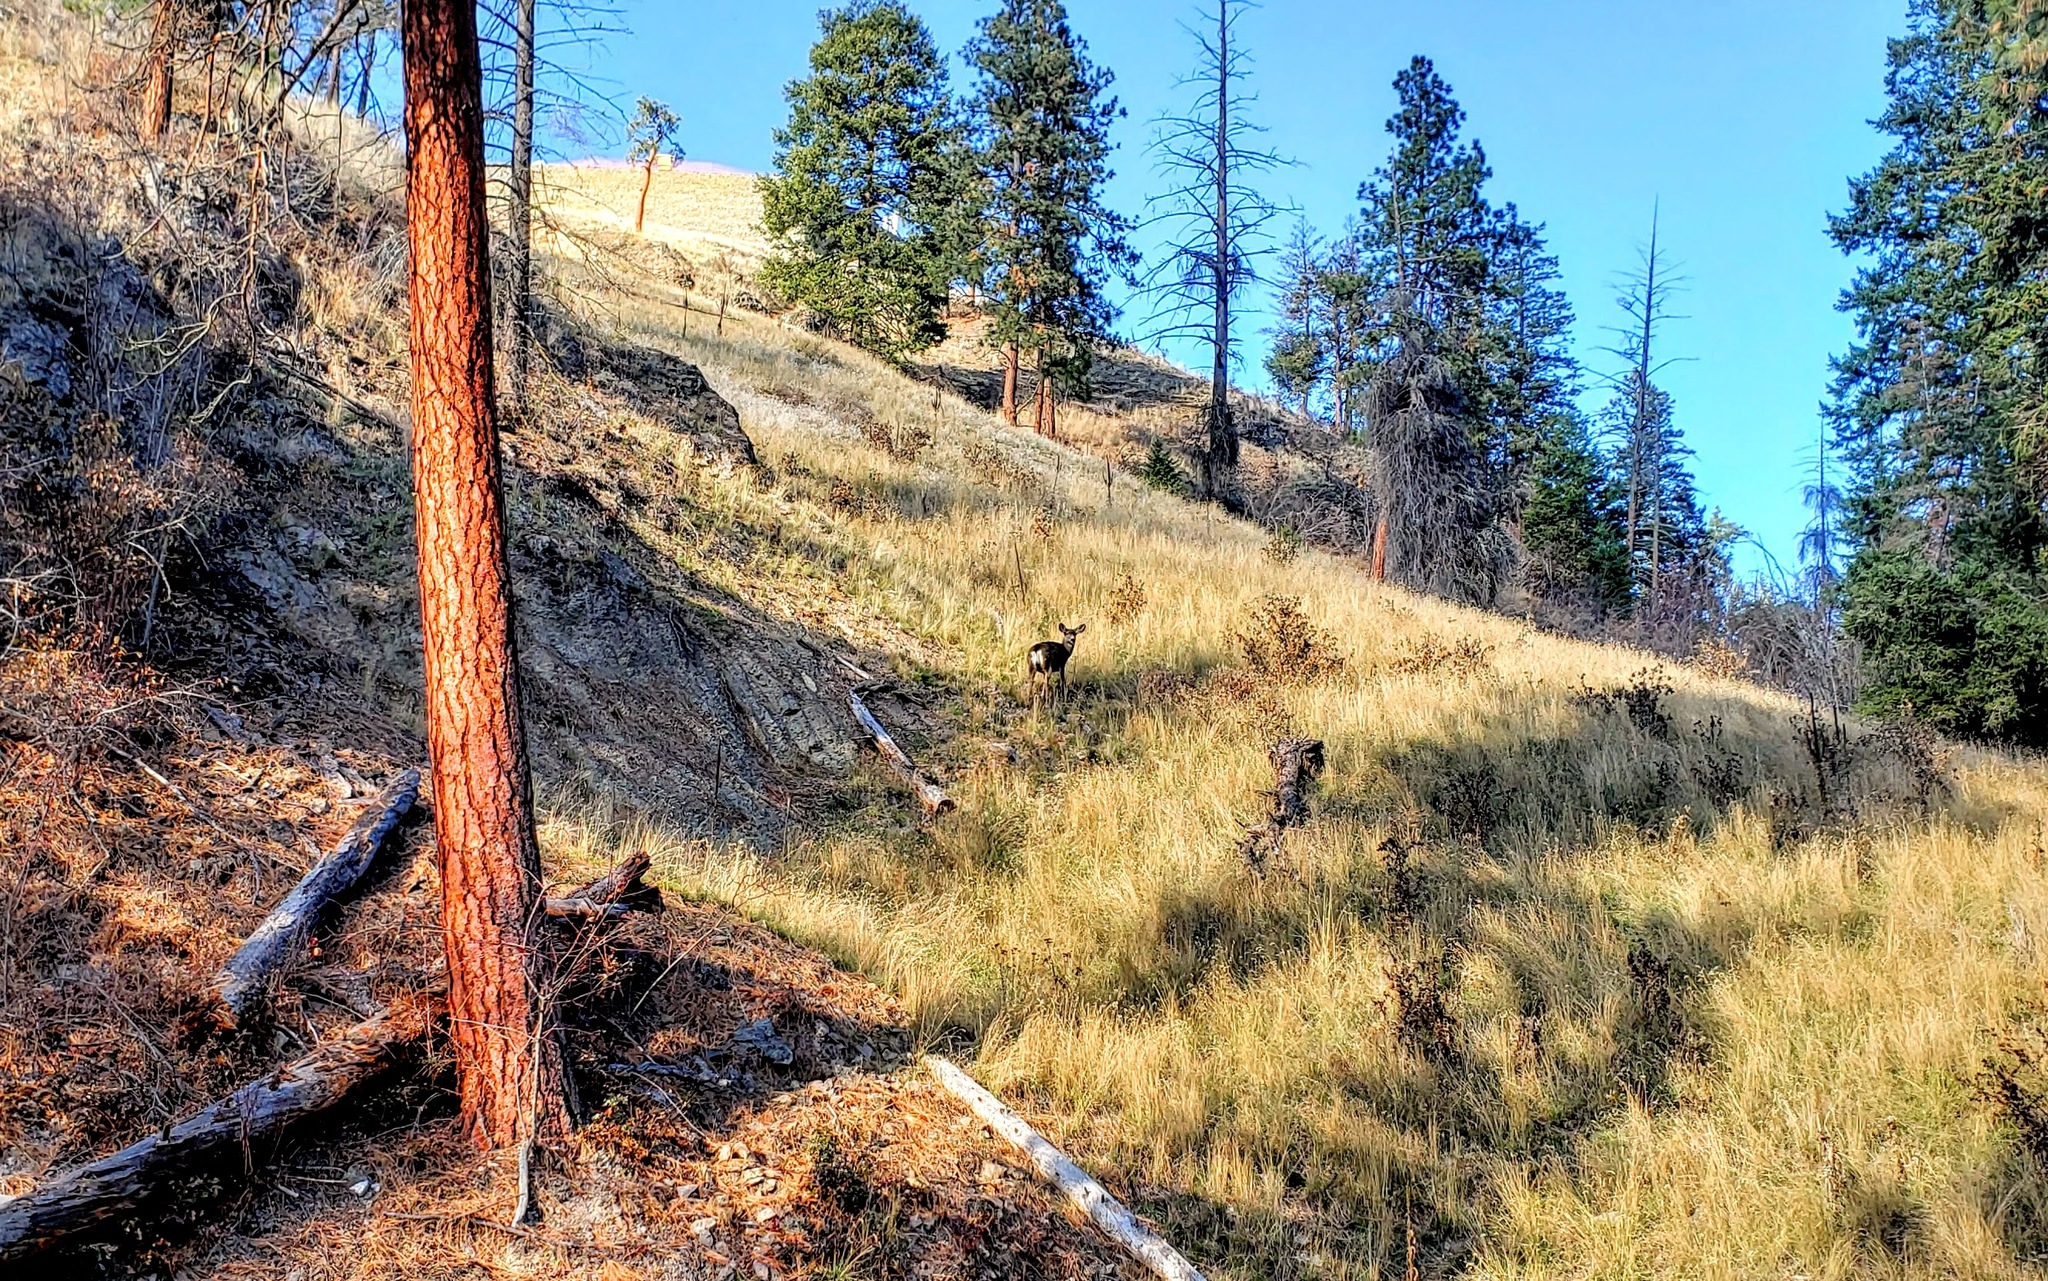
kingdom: Animalia
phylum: Chordata
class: Mammalia
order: Artiodactyla
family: Cervidae
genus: Odocoileus
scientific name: Odocoileus hemionus
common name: Mule deer
